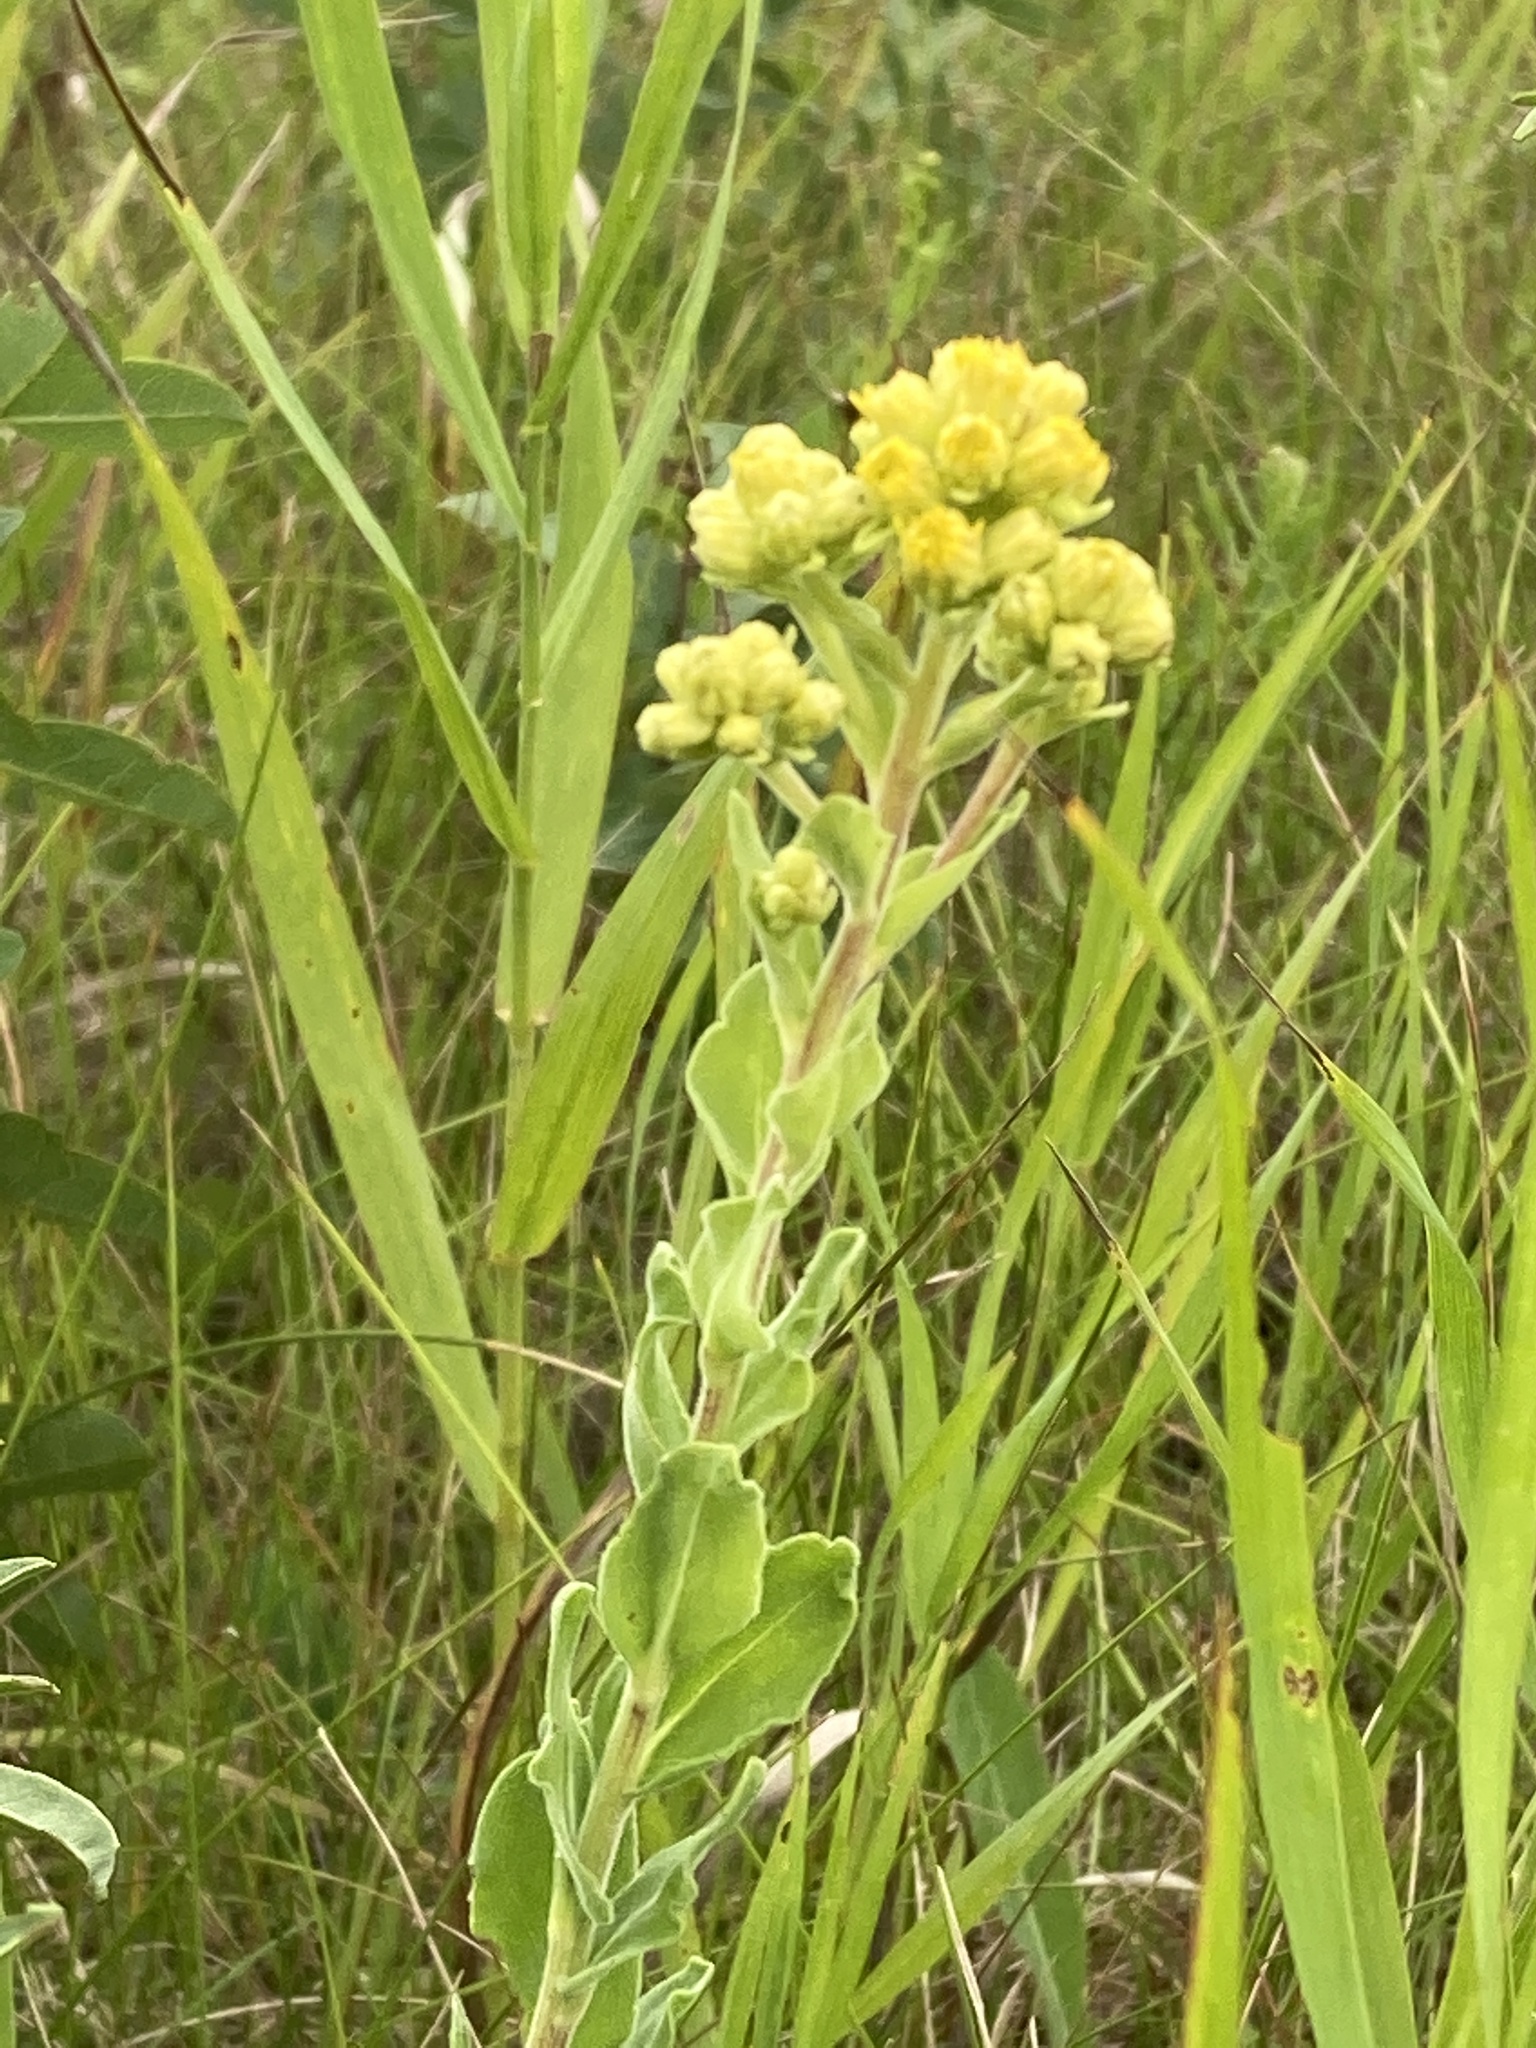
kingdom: Plantae
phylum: Tracheophyta
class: Magnoliopsida
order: Asterales
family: Asteraceae
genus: Solidago
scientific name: Solidago rigida
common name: Rigid goldenrod
